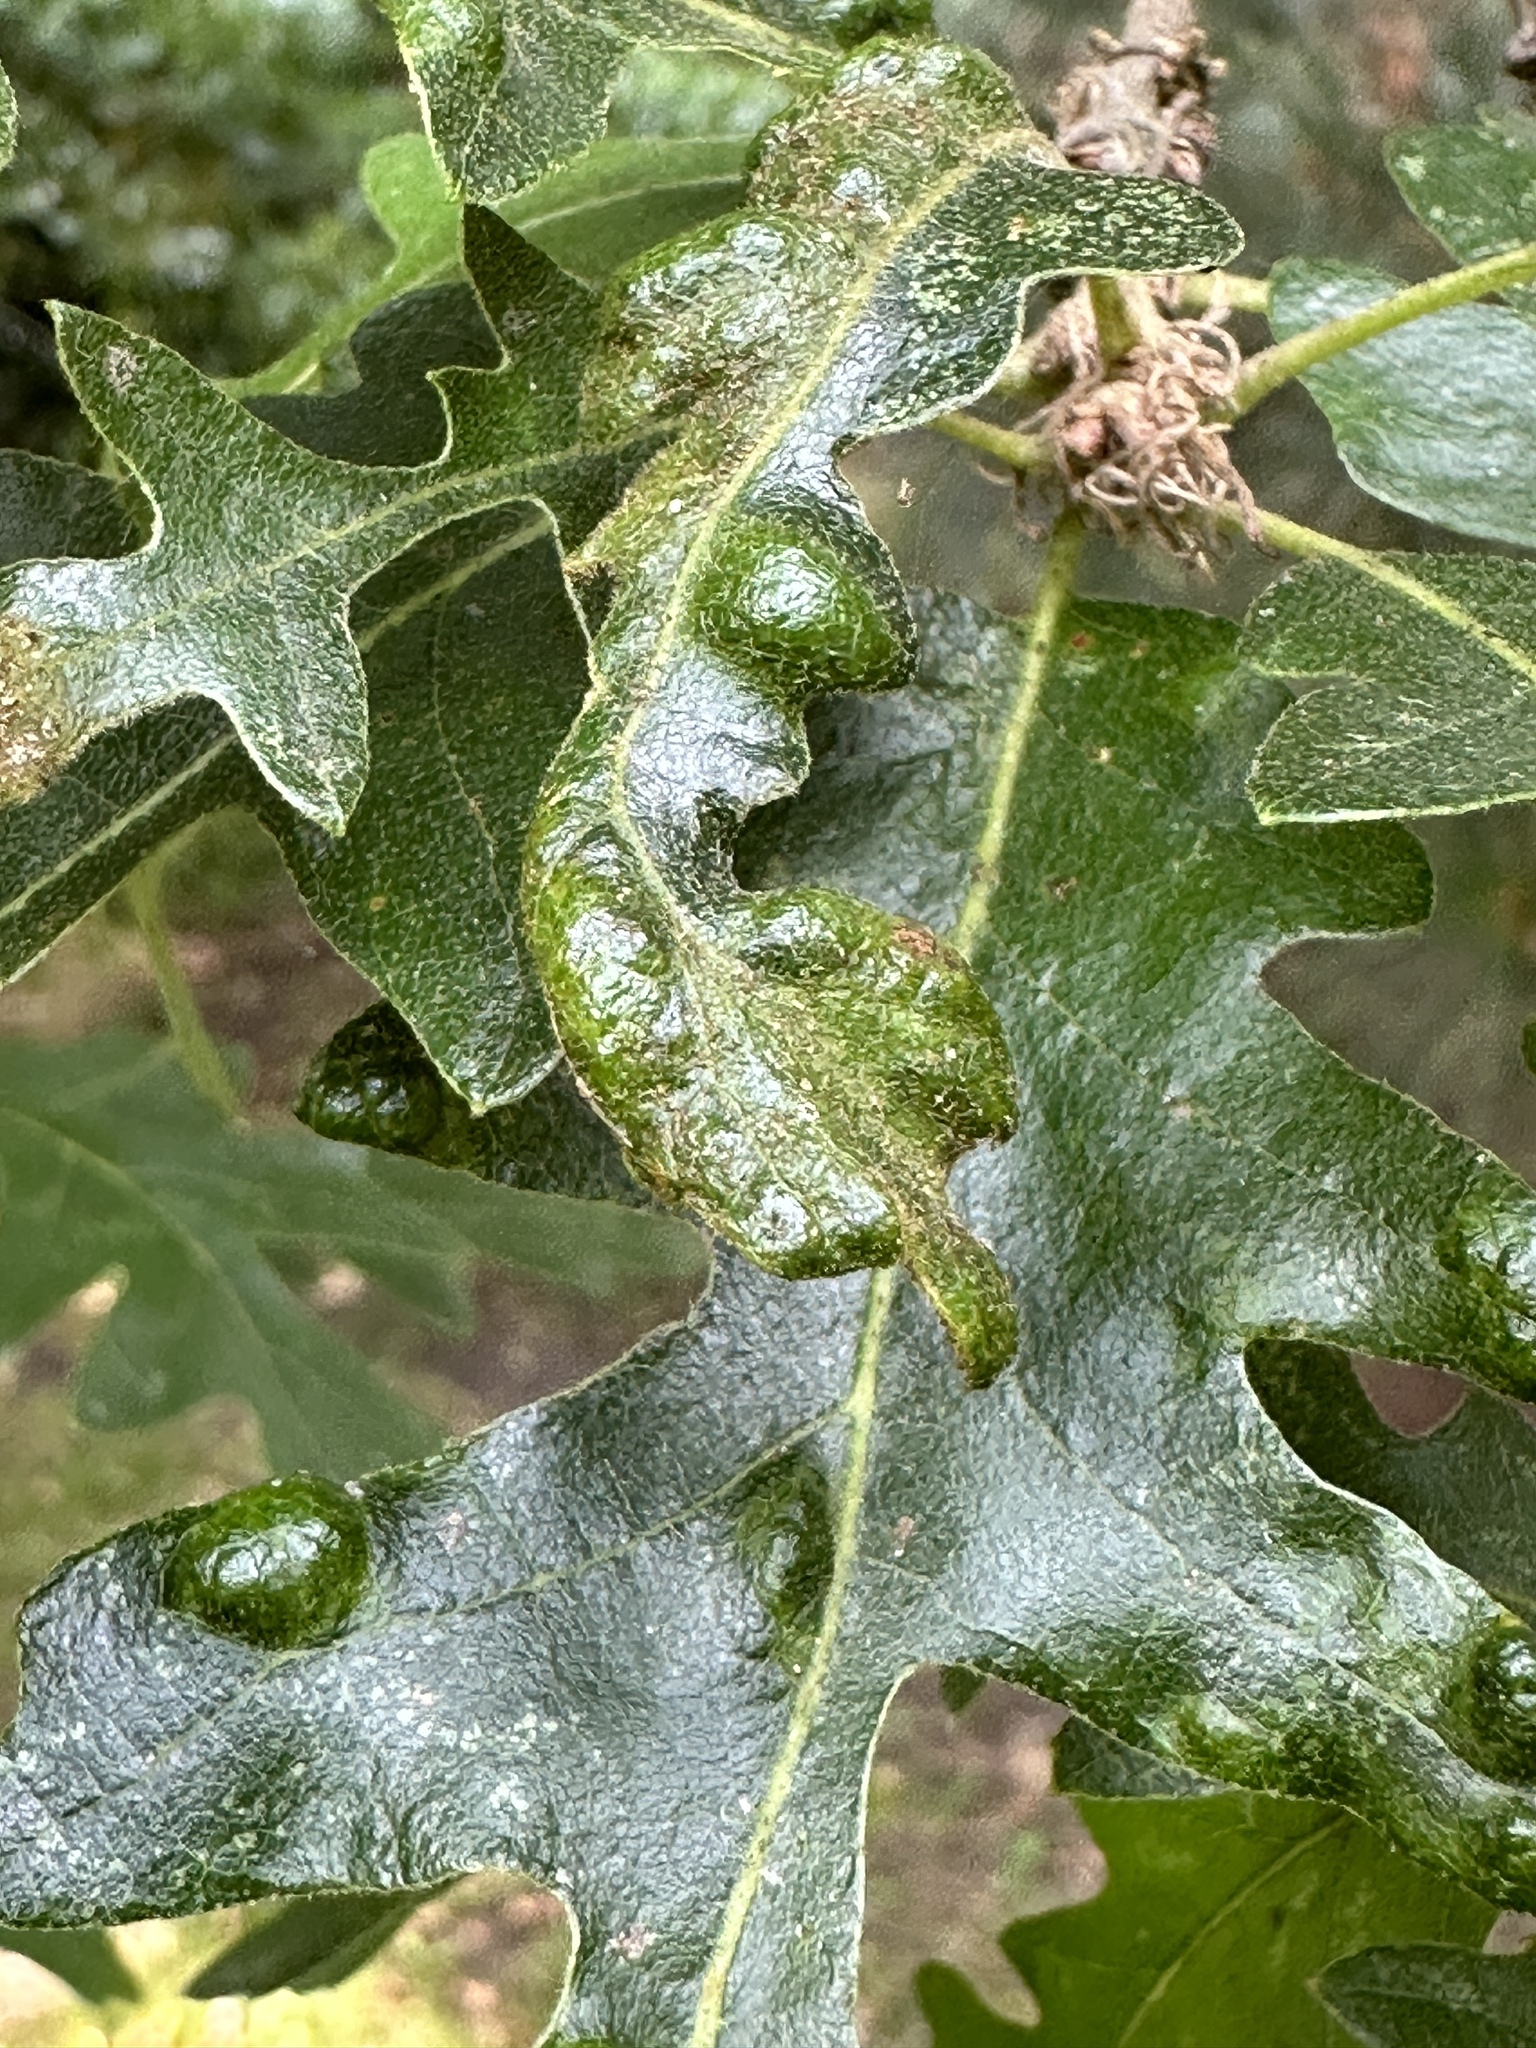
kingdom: Animalia
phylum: Arthropoda
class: Arachnida
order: Trombidiformes
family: Eriophyidae
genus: Aceria
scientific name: Aceria cerrea
